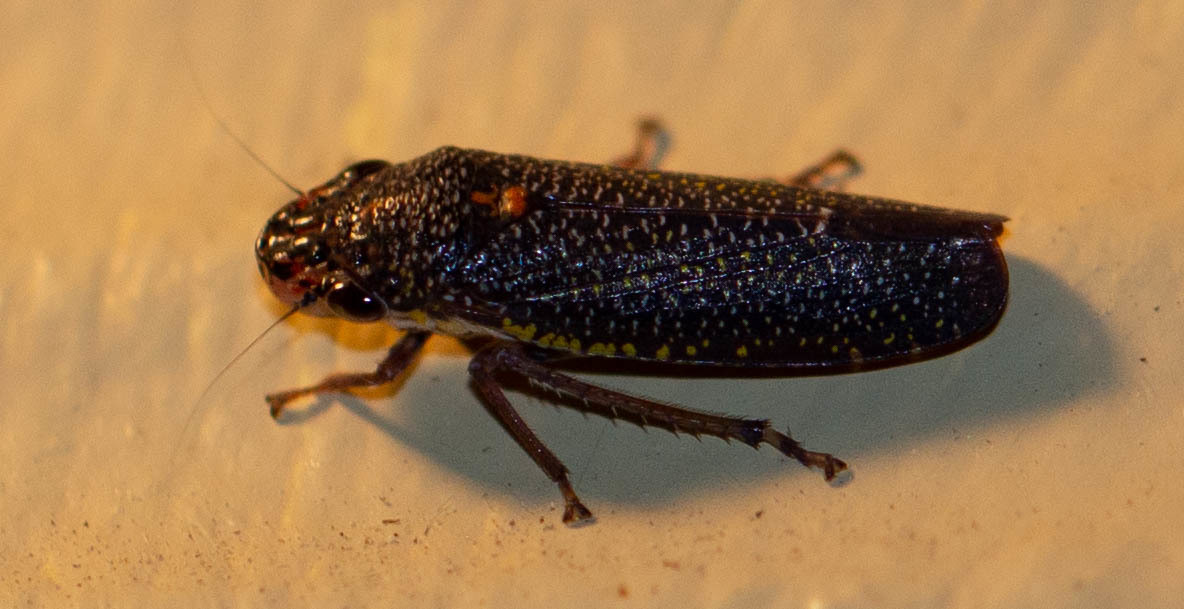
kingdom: Animalia
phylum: Arthropoda
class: Insecta
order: Hemiptera
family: Cicadellidae
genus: Paraulacizes
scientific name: Paraulacizes irrorata
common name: Speckled sharpshooter
